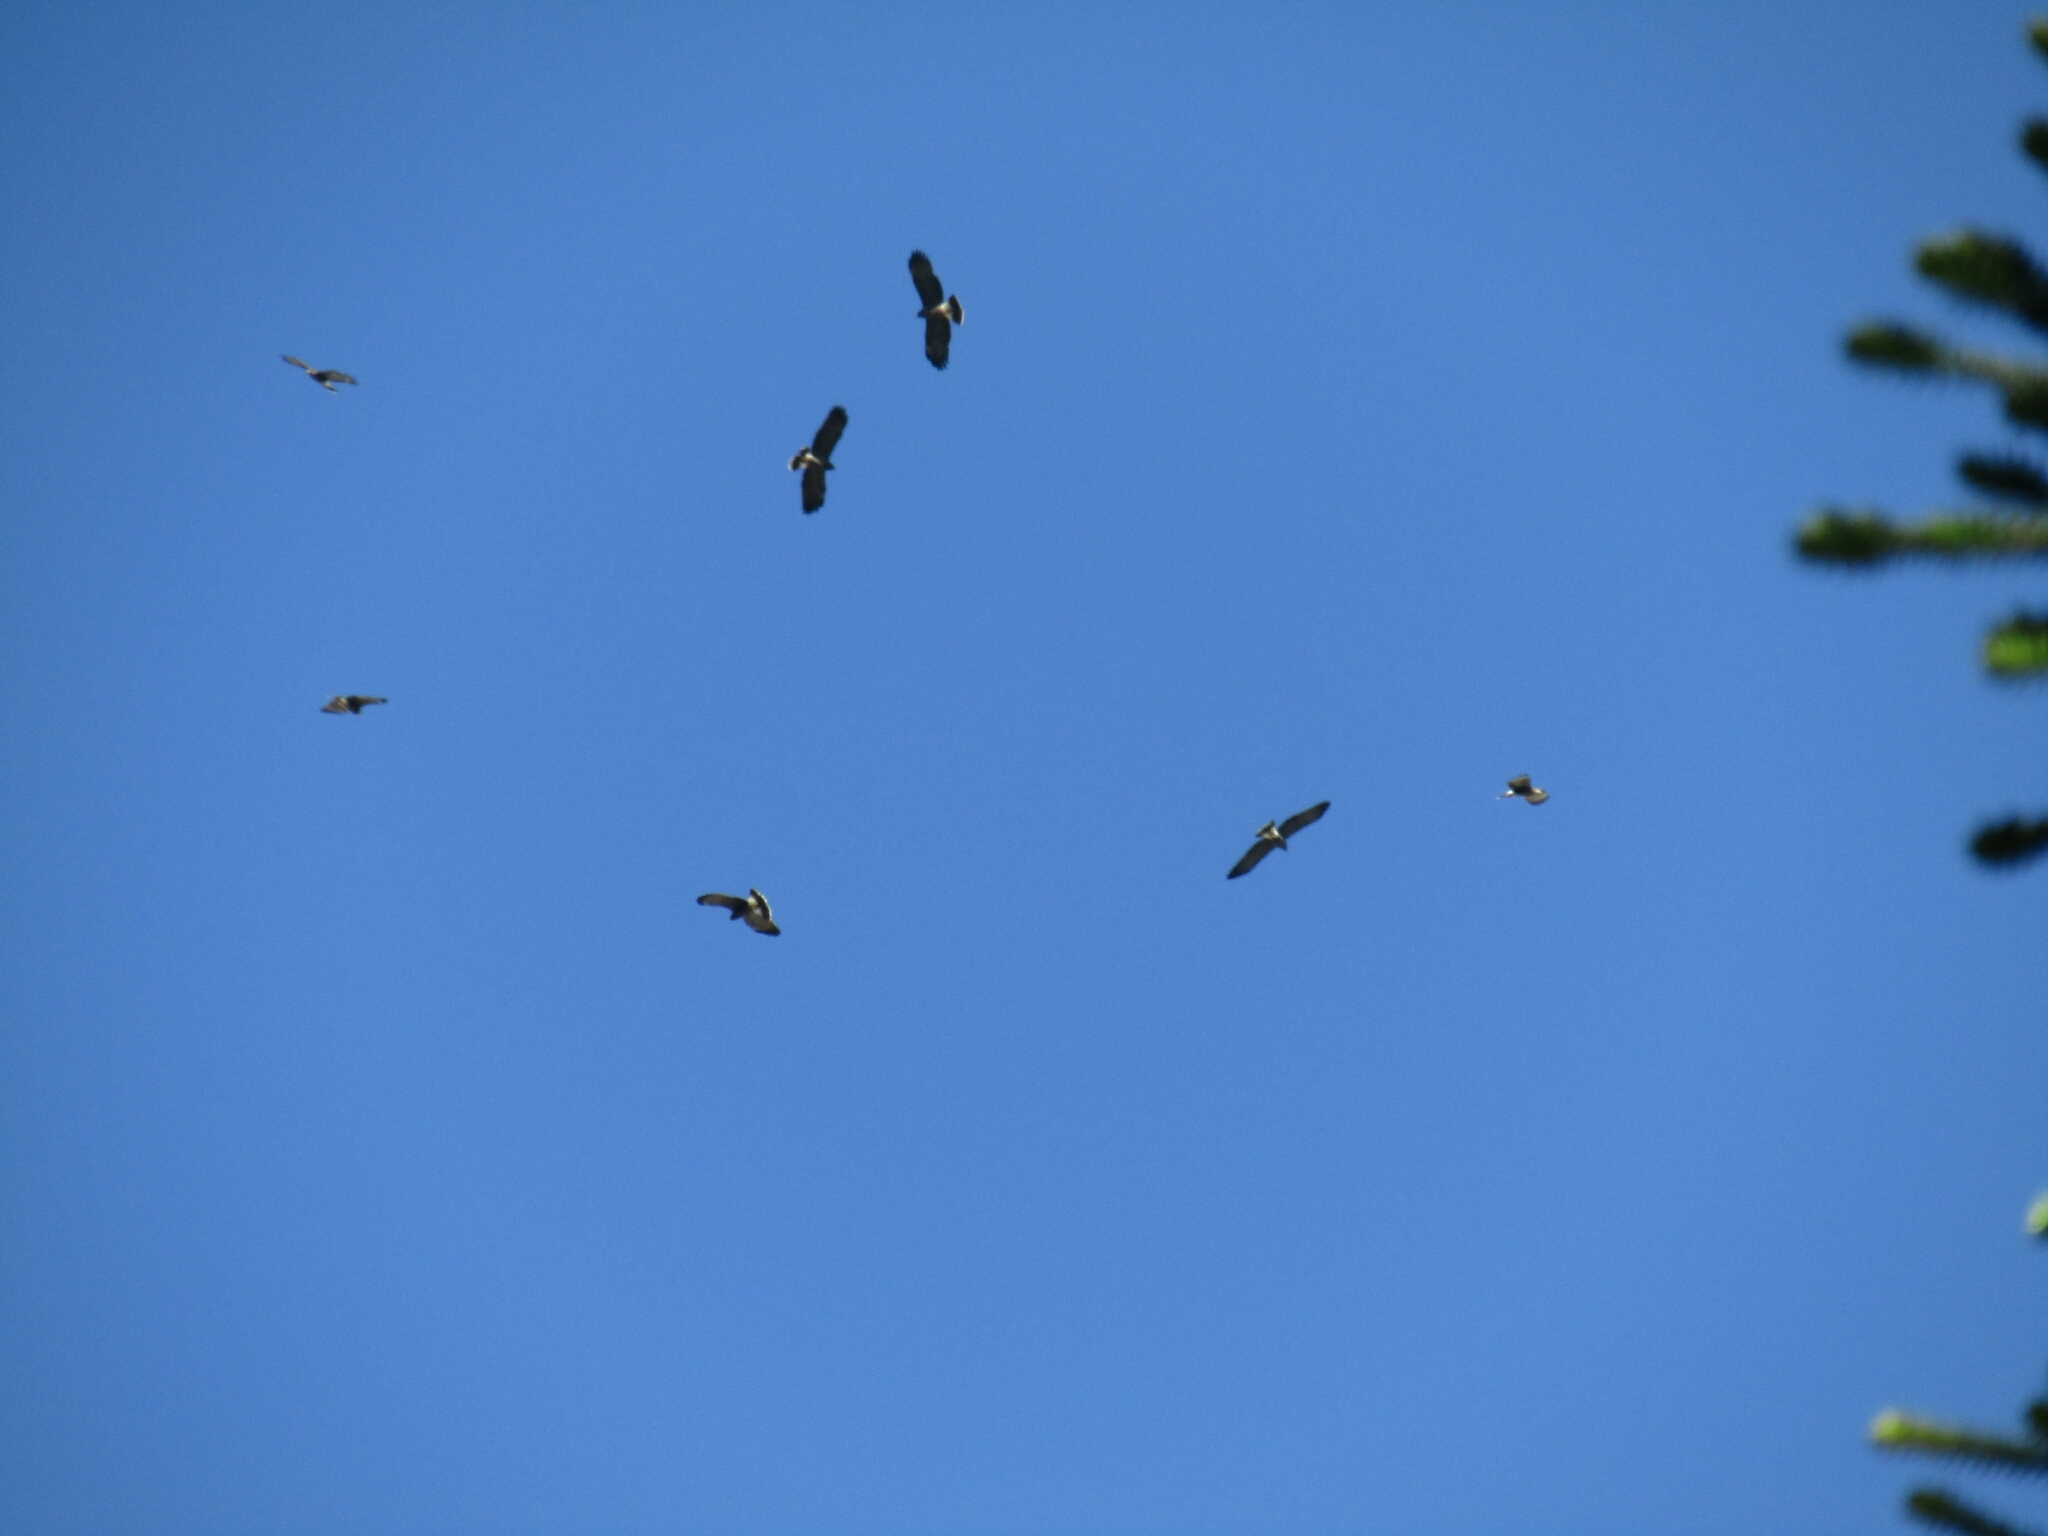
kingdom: Animalia
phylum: Chordata
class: Aves
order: Accipitriformes
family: Accipitridae
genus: Rostrhamus
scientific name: Rostrhamus sociabilis
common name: Snail kite
